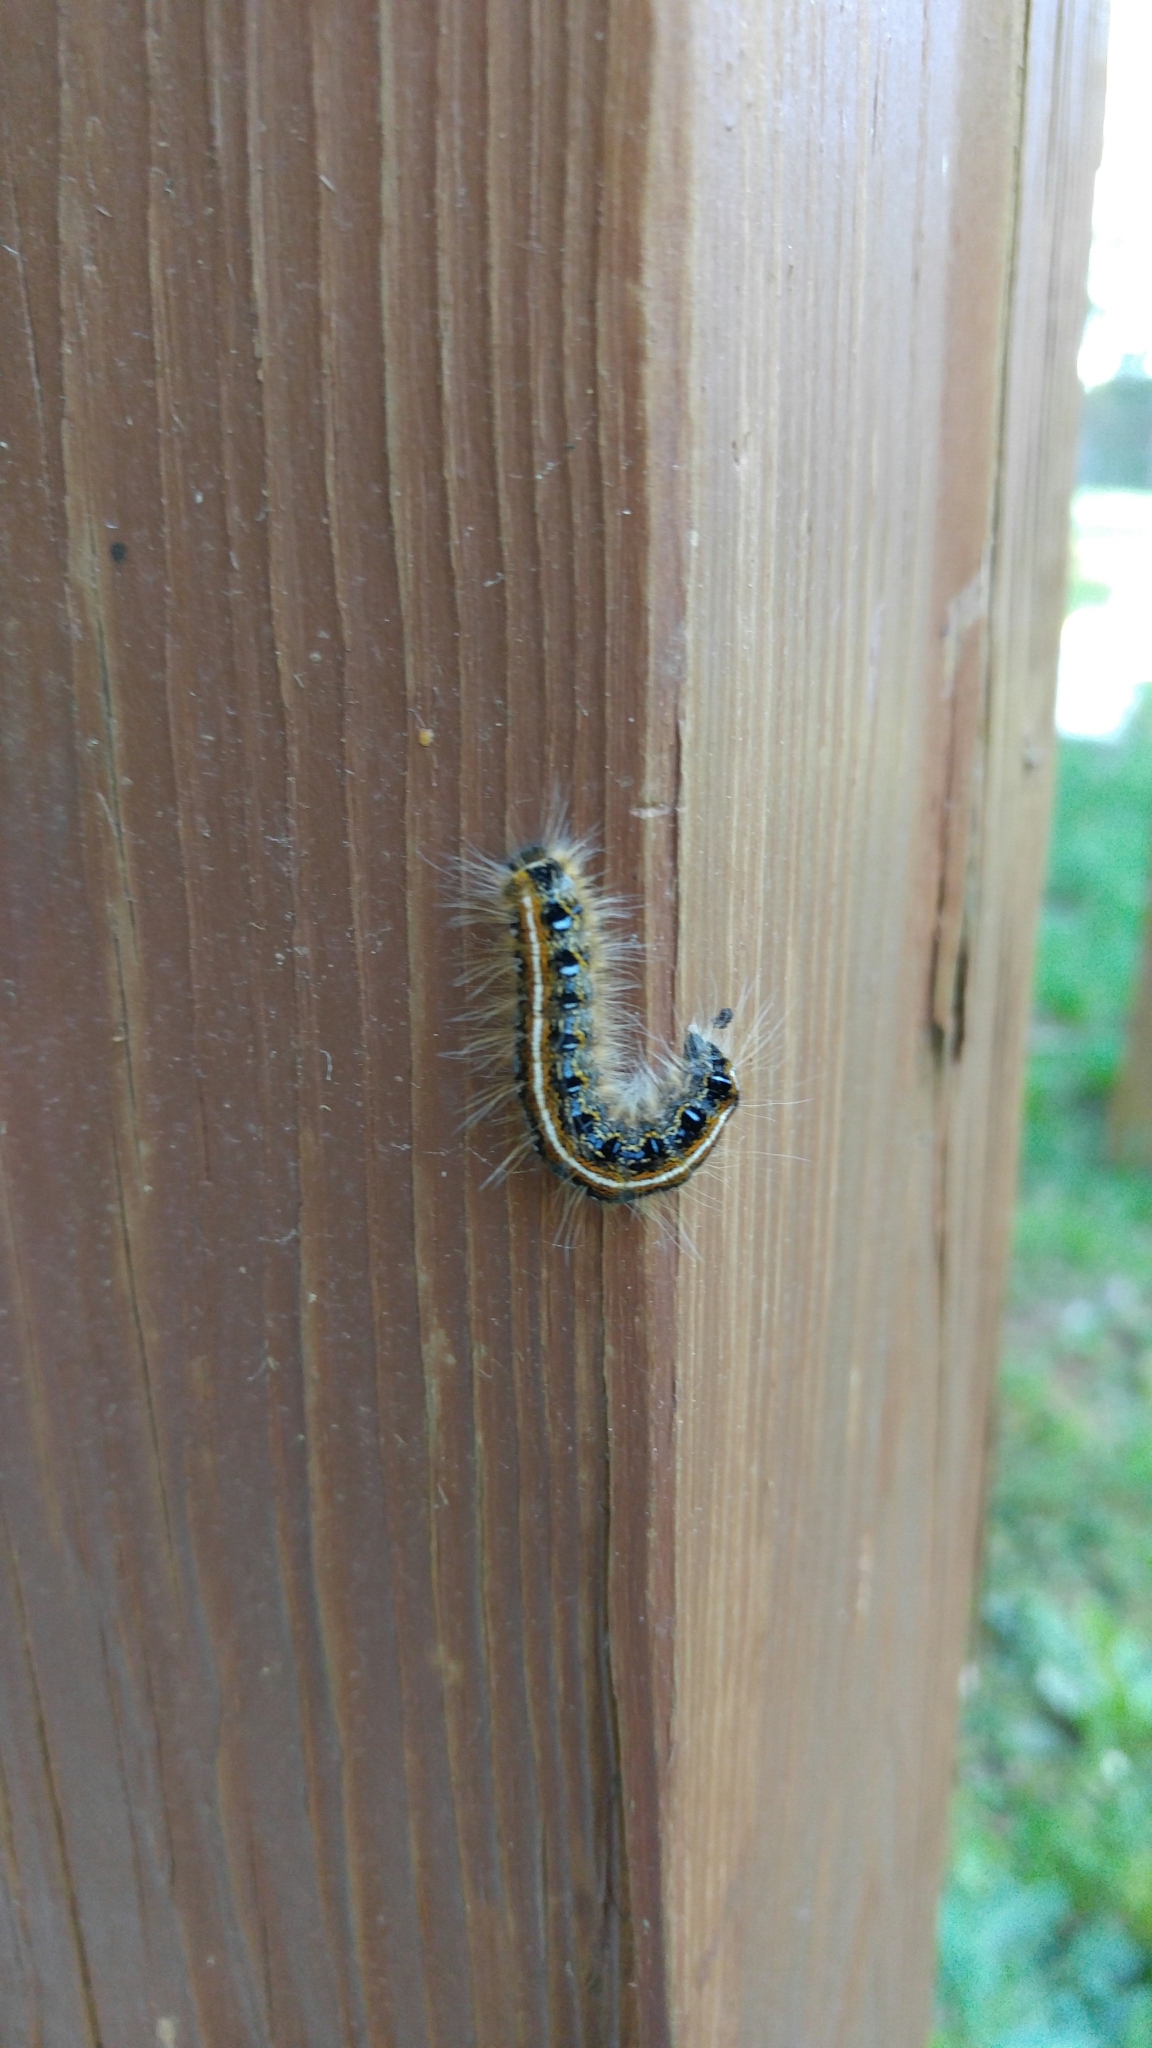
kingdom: Animalia
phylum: Arthropoda
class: Insecta
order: Lepidoptera
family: Lasiocampidae
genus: Malacosoma
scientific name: Malacosoma americana
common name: Eastern tent caterpillar moth
